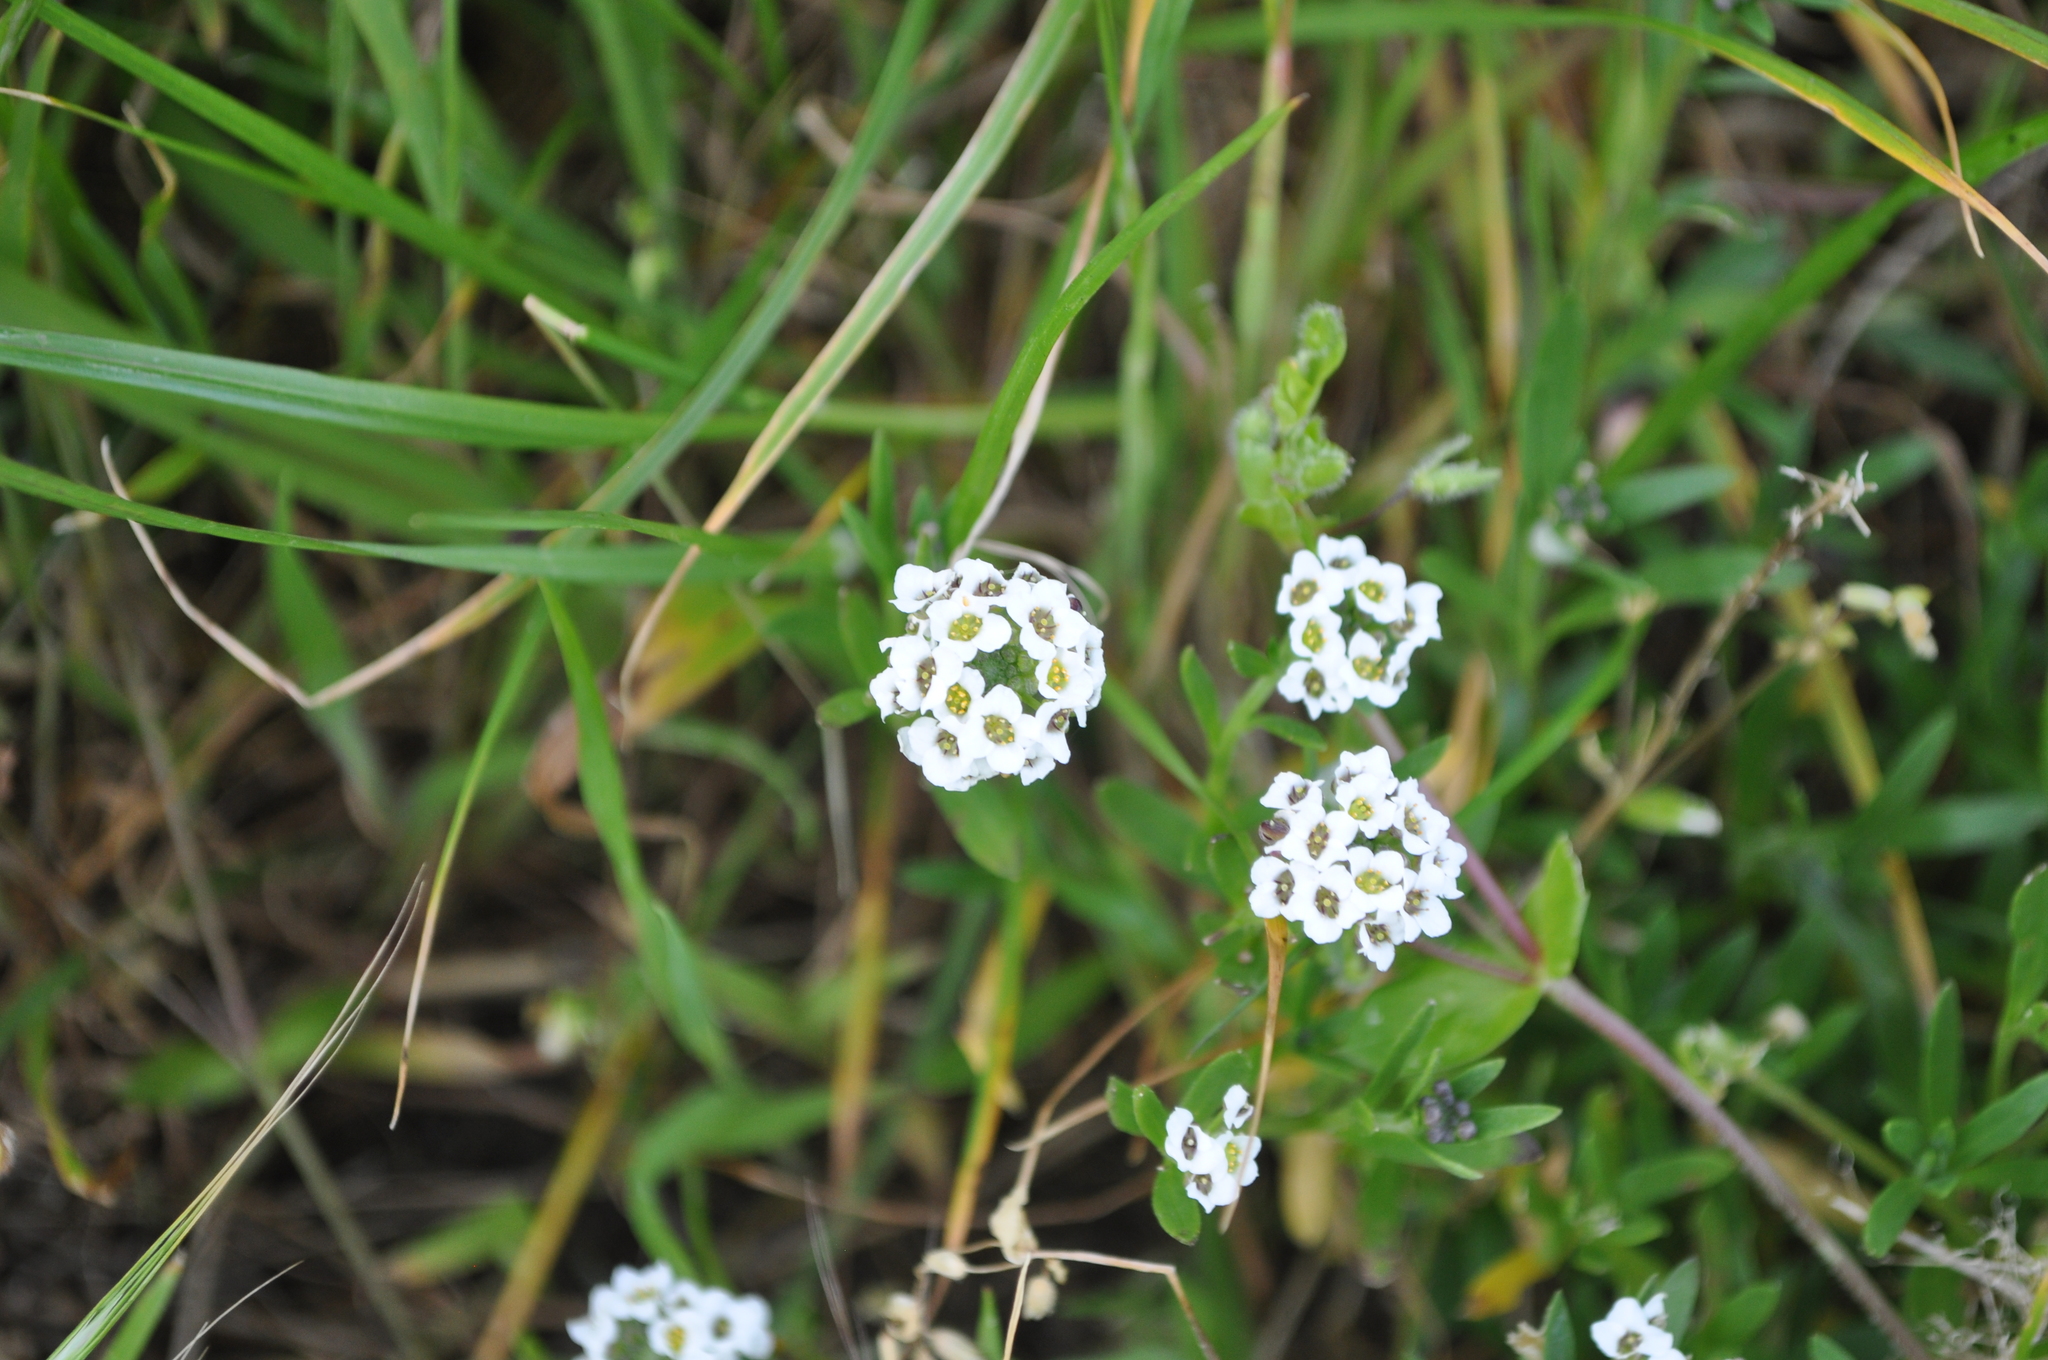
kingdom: Plantae
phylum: Tracheophyta
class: Magnoliopsida
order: Brassicales
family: Brassicaceae
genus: Lobularia
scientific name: Lobularia maritima
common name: Sweet alison
